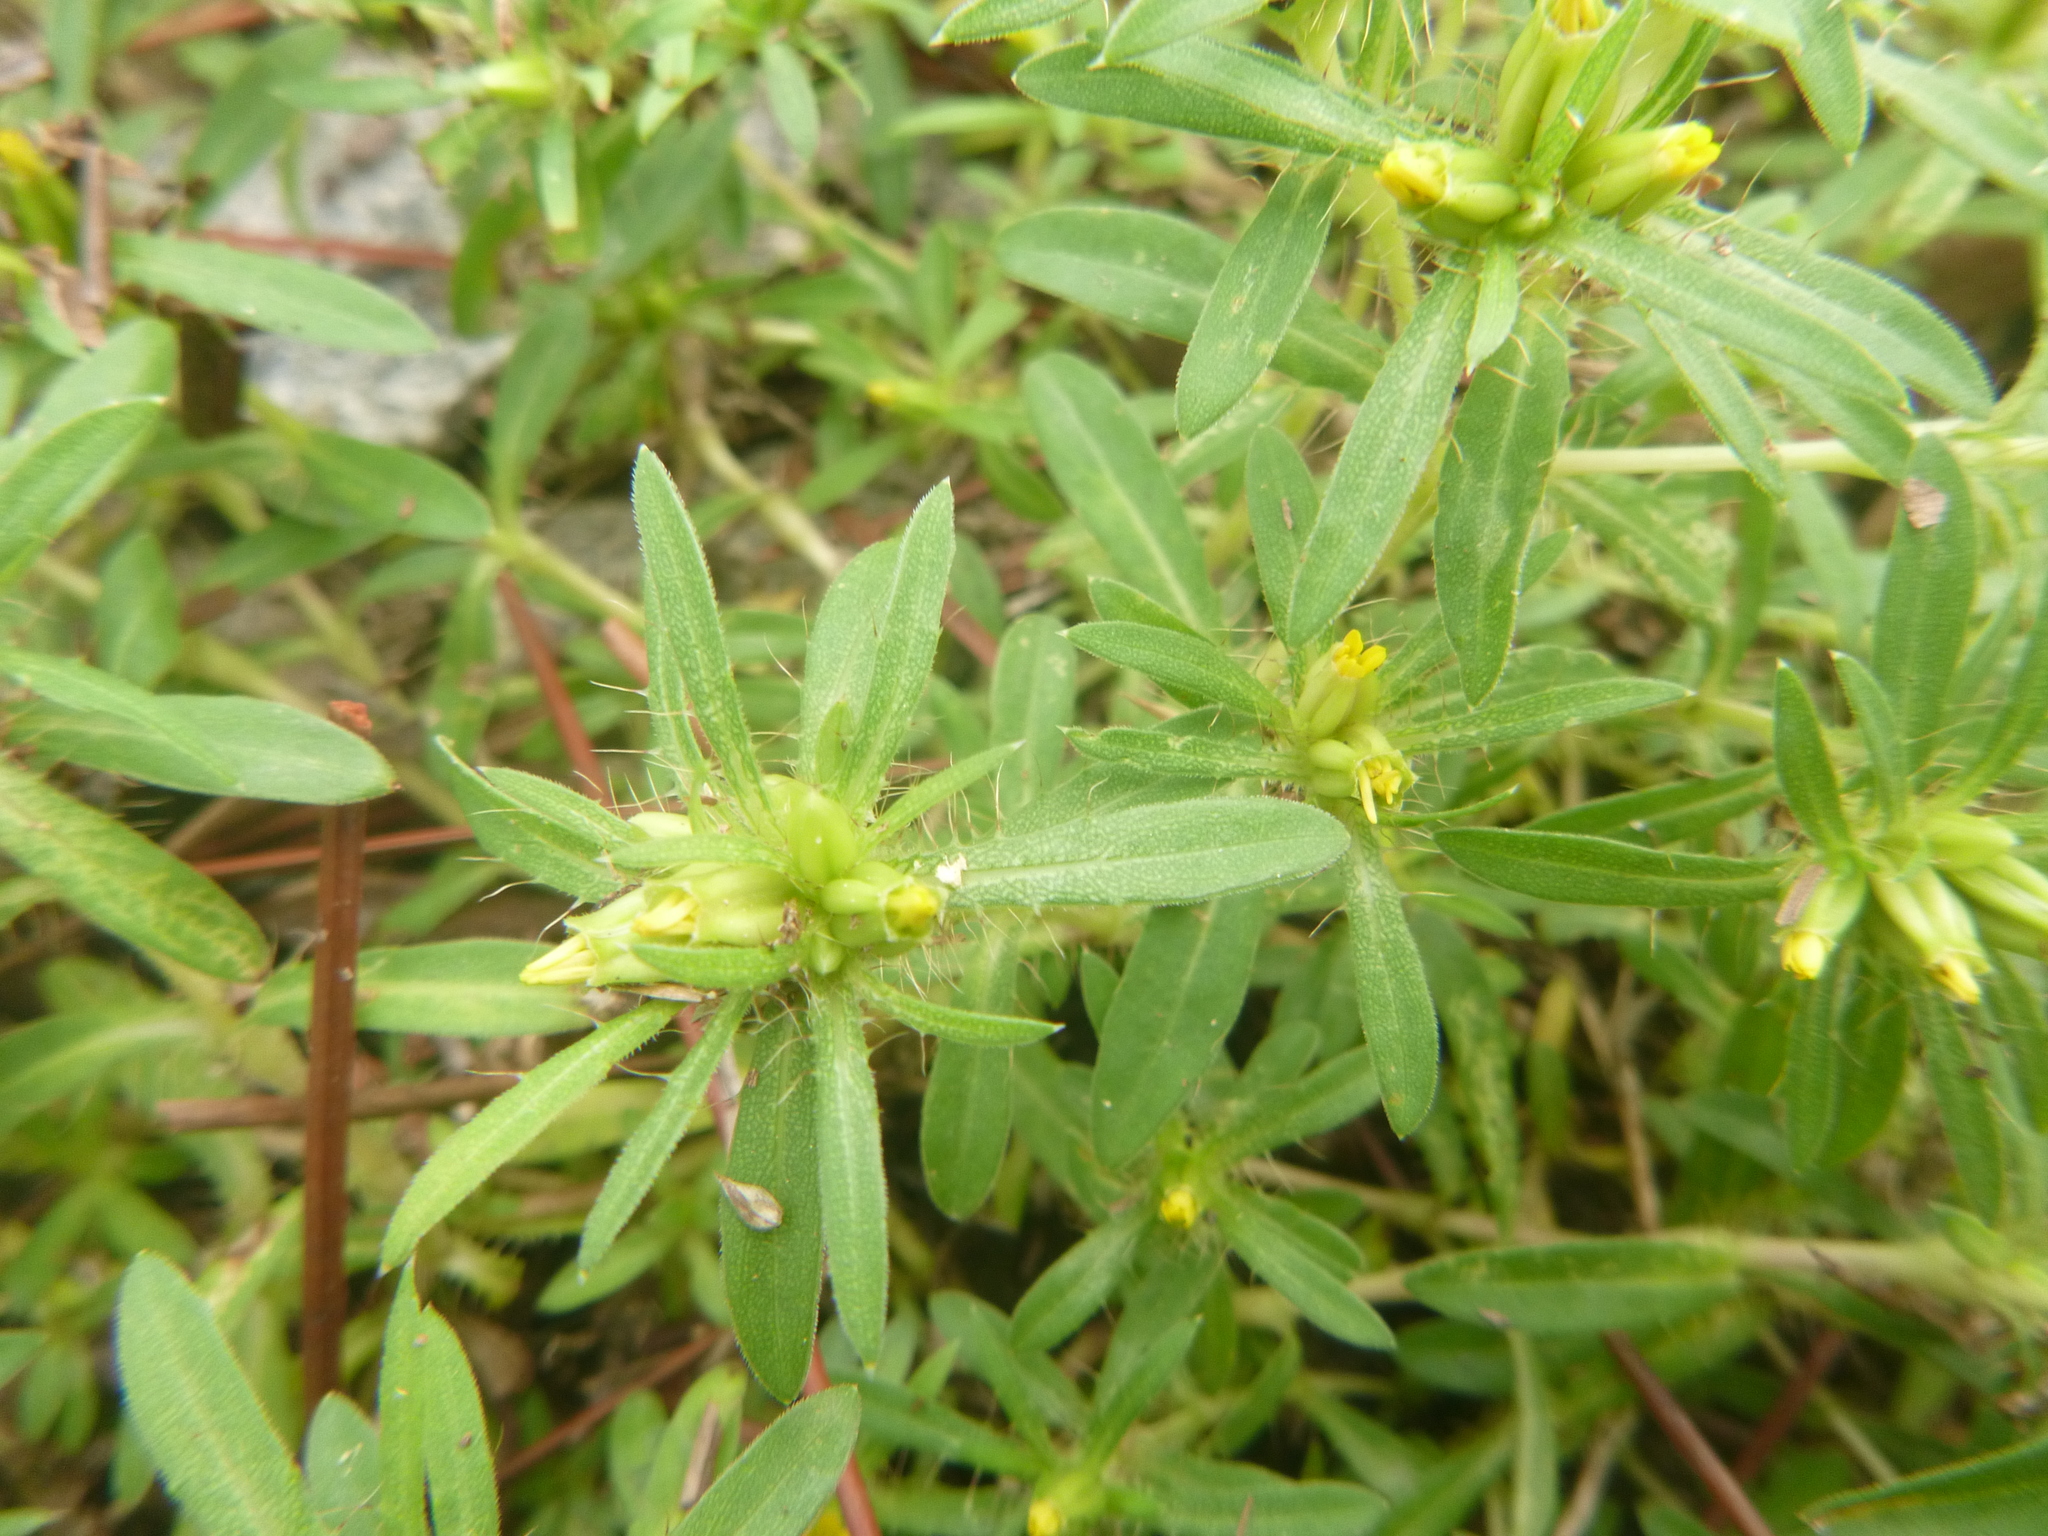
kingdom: Plantae
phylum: Tracheophyta
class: Magnoliopsida
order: Asterales
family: Asteraceae
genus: Pectis
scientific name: Pectis prostrata
